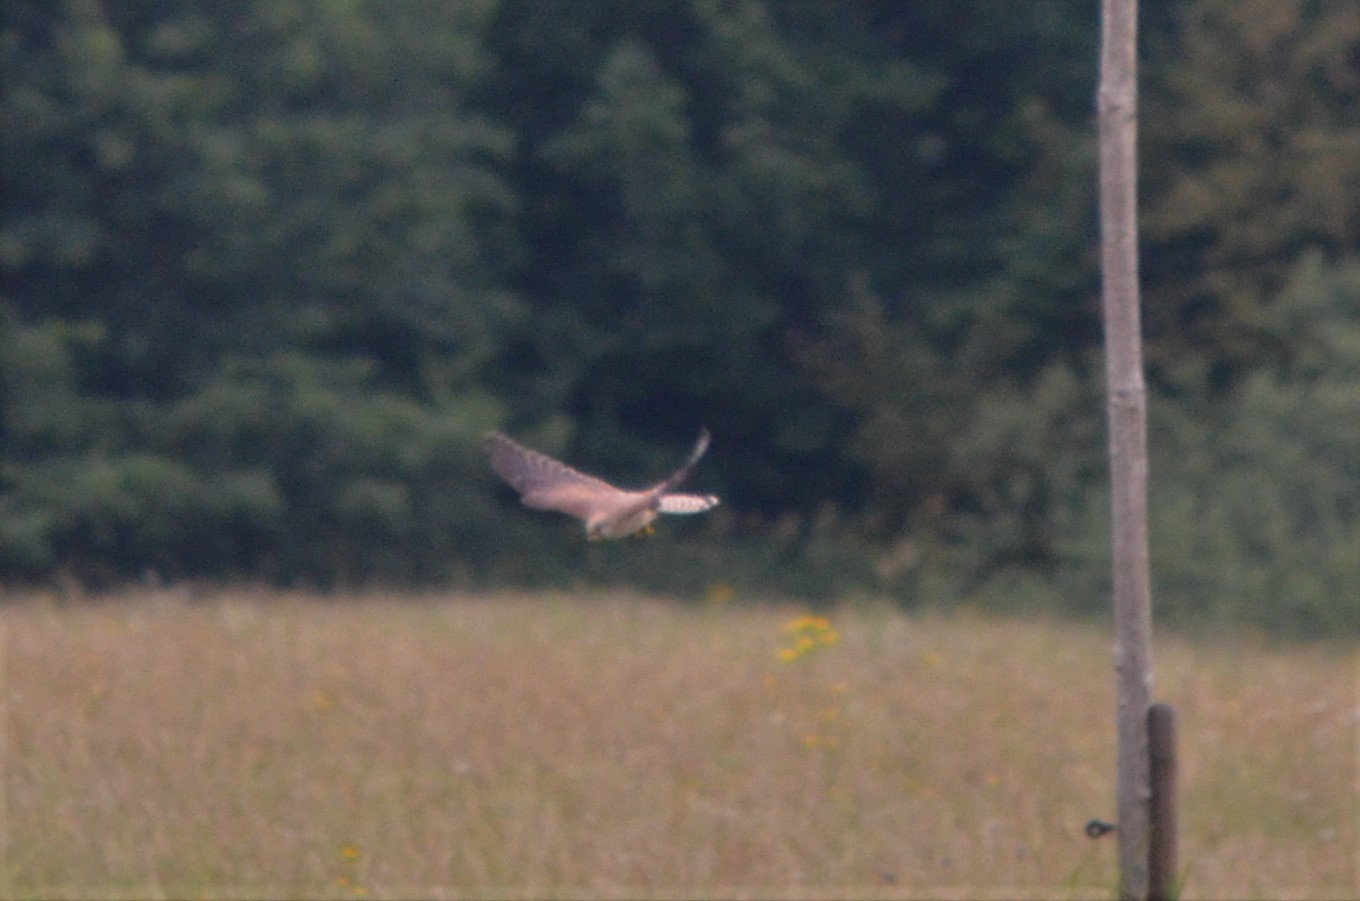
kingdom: Animalia
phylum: Chordata
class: Aves
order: Falconiformes
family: Falconidae
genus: Falco
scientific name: Falco tinnunculus
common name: Common kestrel
